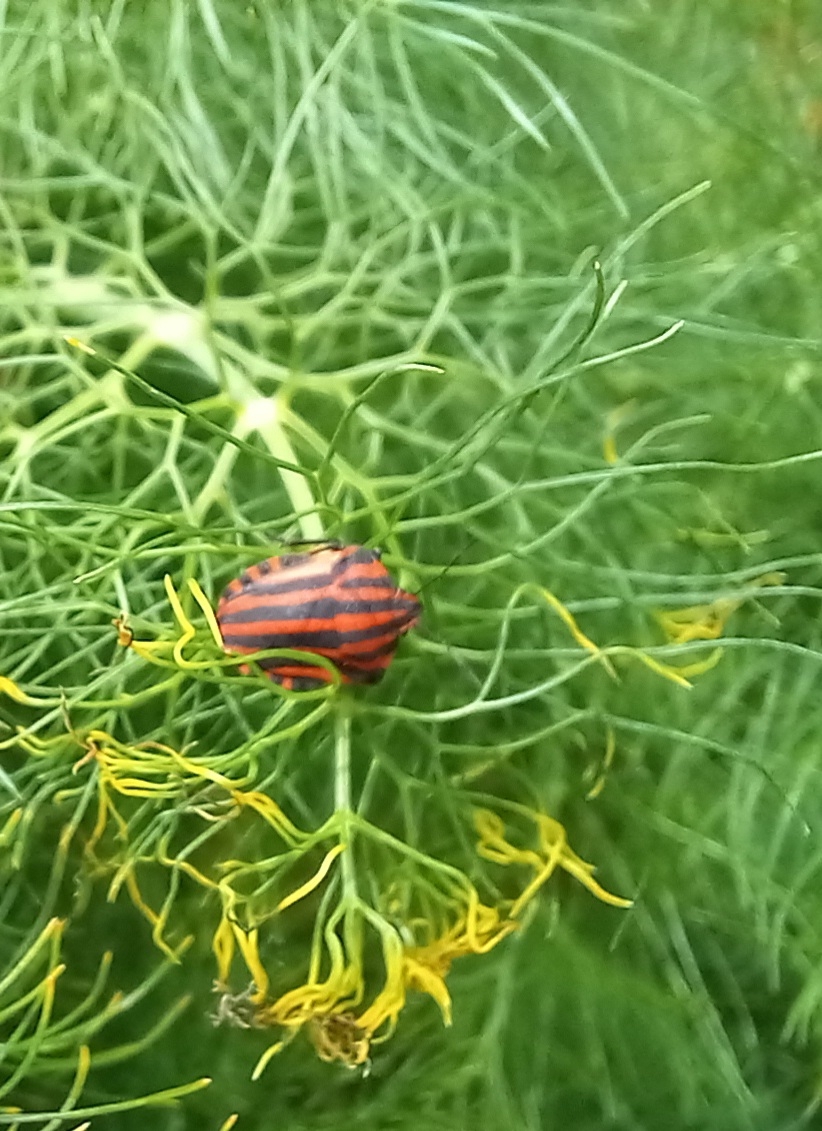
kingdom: Animalia
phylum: Arthropoda
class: Insecta
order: Hemiptera
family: Pentatomidae
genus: Graphosoma
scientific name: Graphosoma italicum
